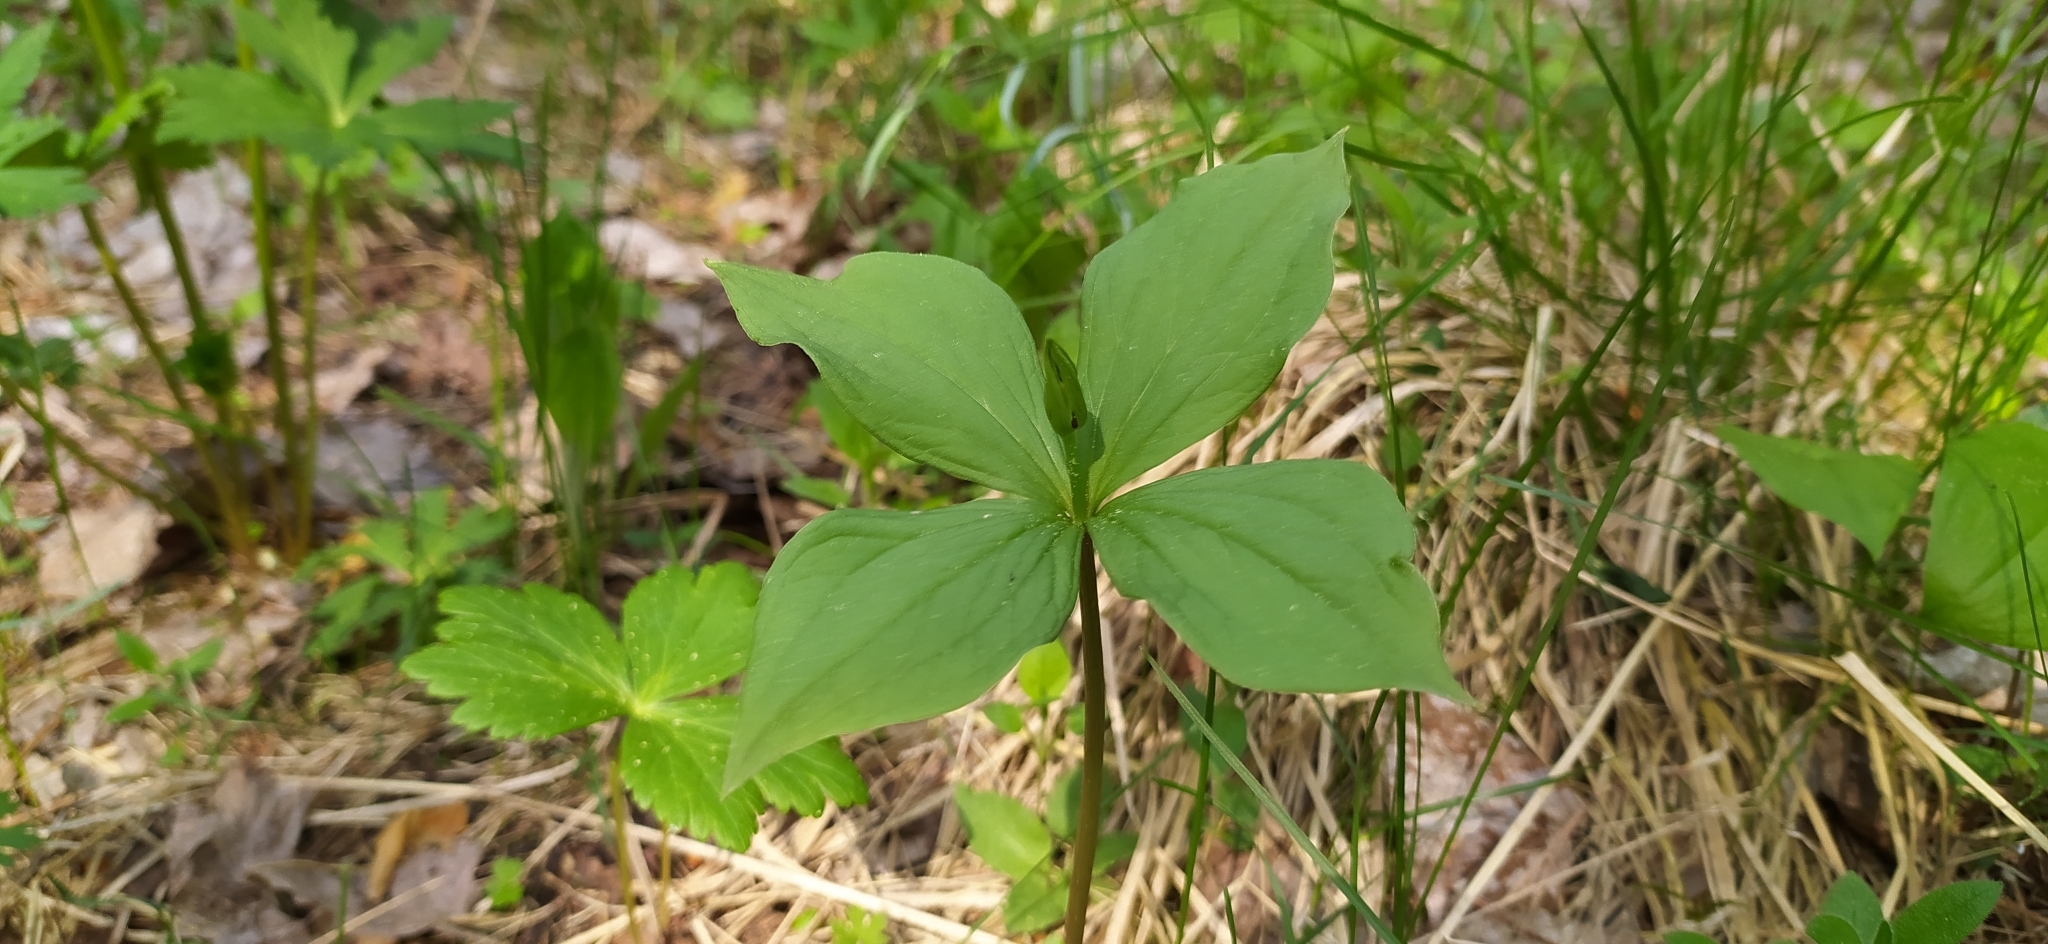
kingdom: Plantae
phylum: Tracheophyta
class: Liliopsida
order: Liliales
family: Melanthiaceae
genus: Paris
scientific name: Paris quadrifolia
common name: Herb-paris
